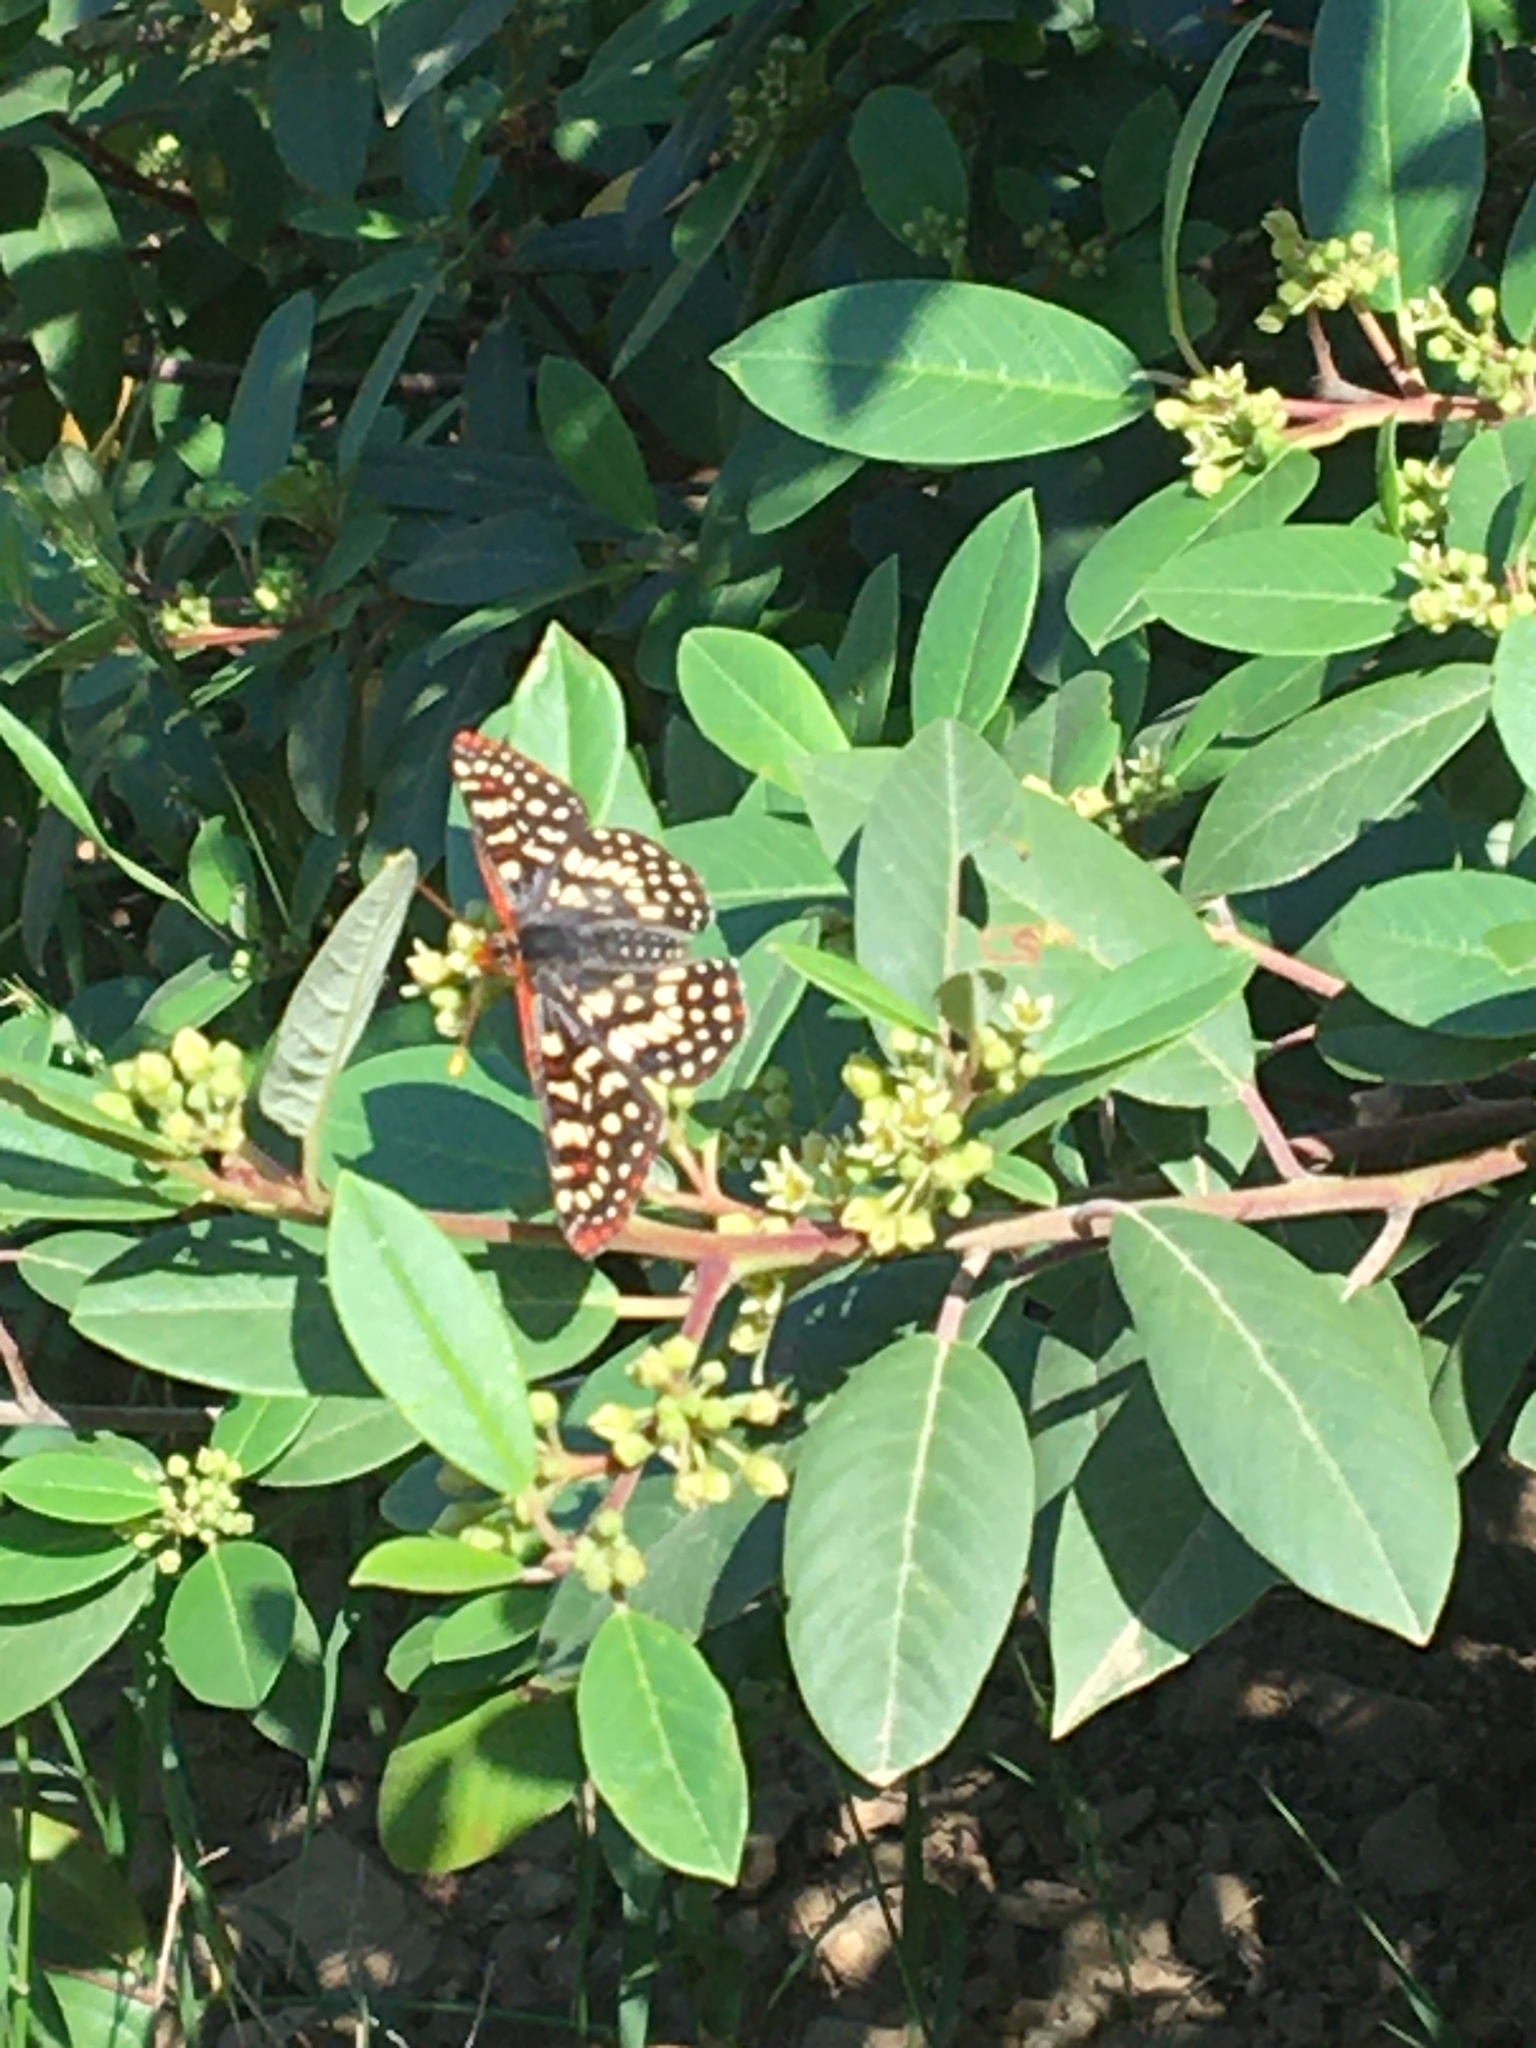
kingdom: Animalia
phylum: Arthropoda
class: Insecta
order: Lepidoptera
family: Nymphalidae
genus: Occidryas
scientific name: Occidryas chalcedona
